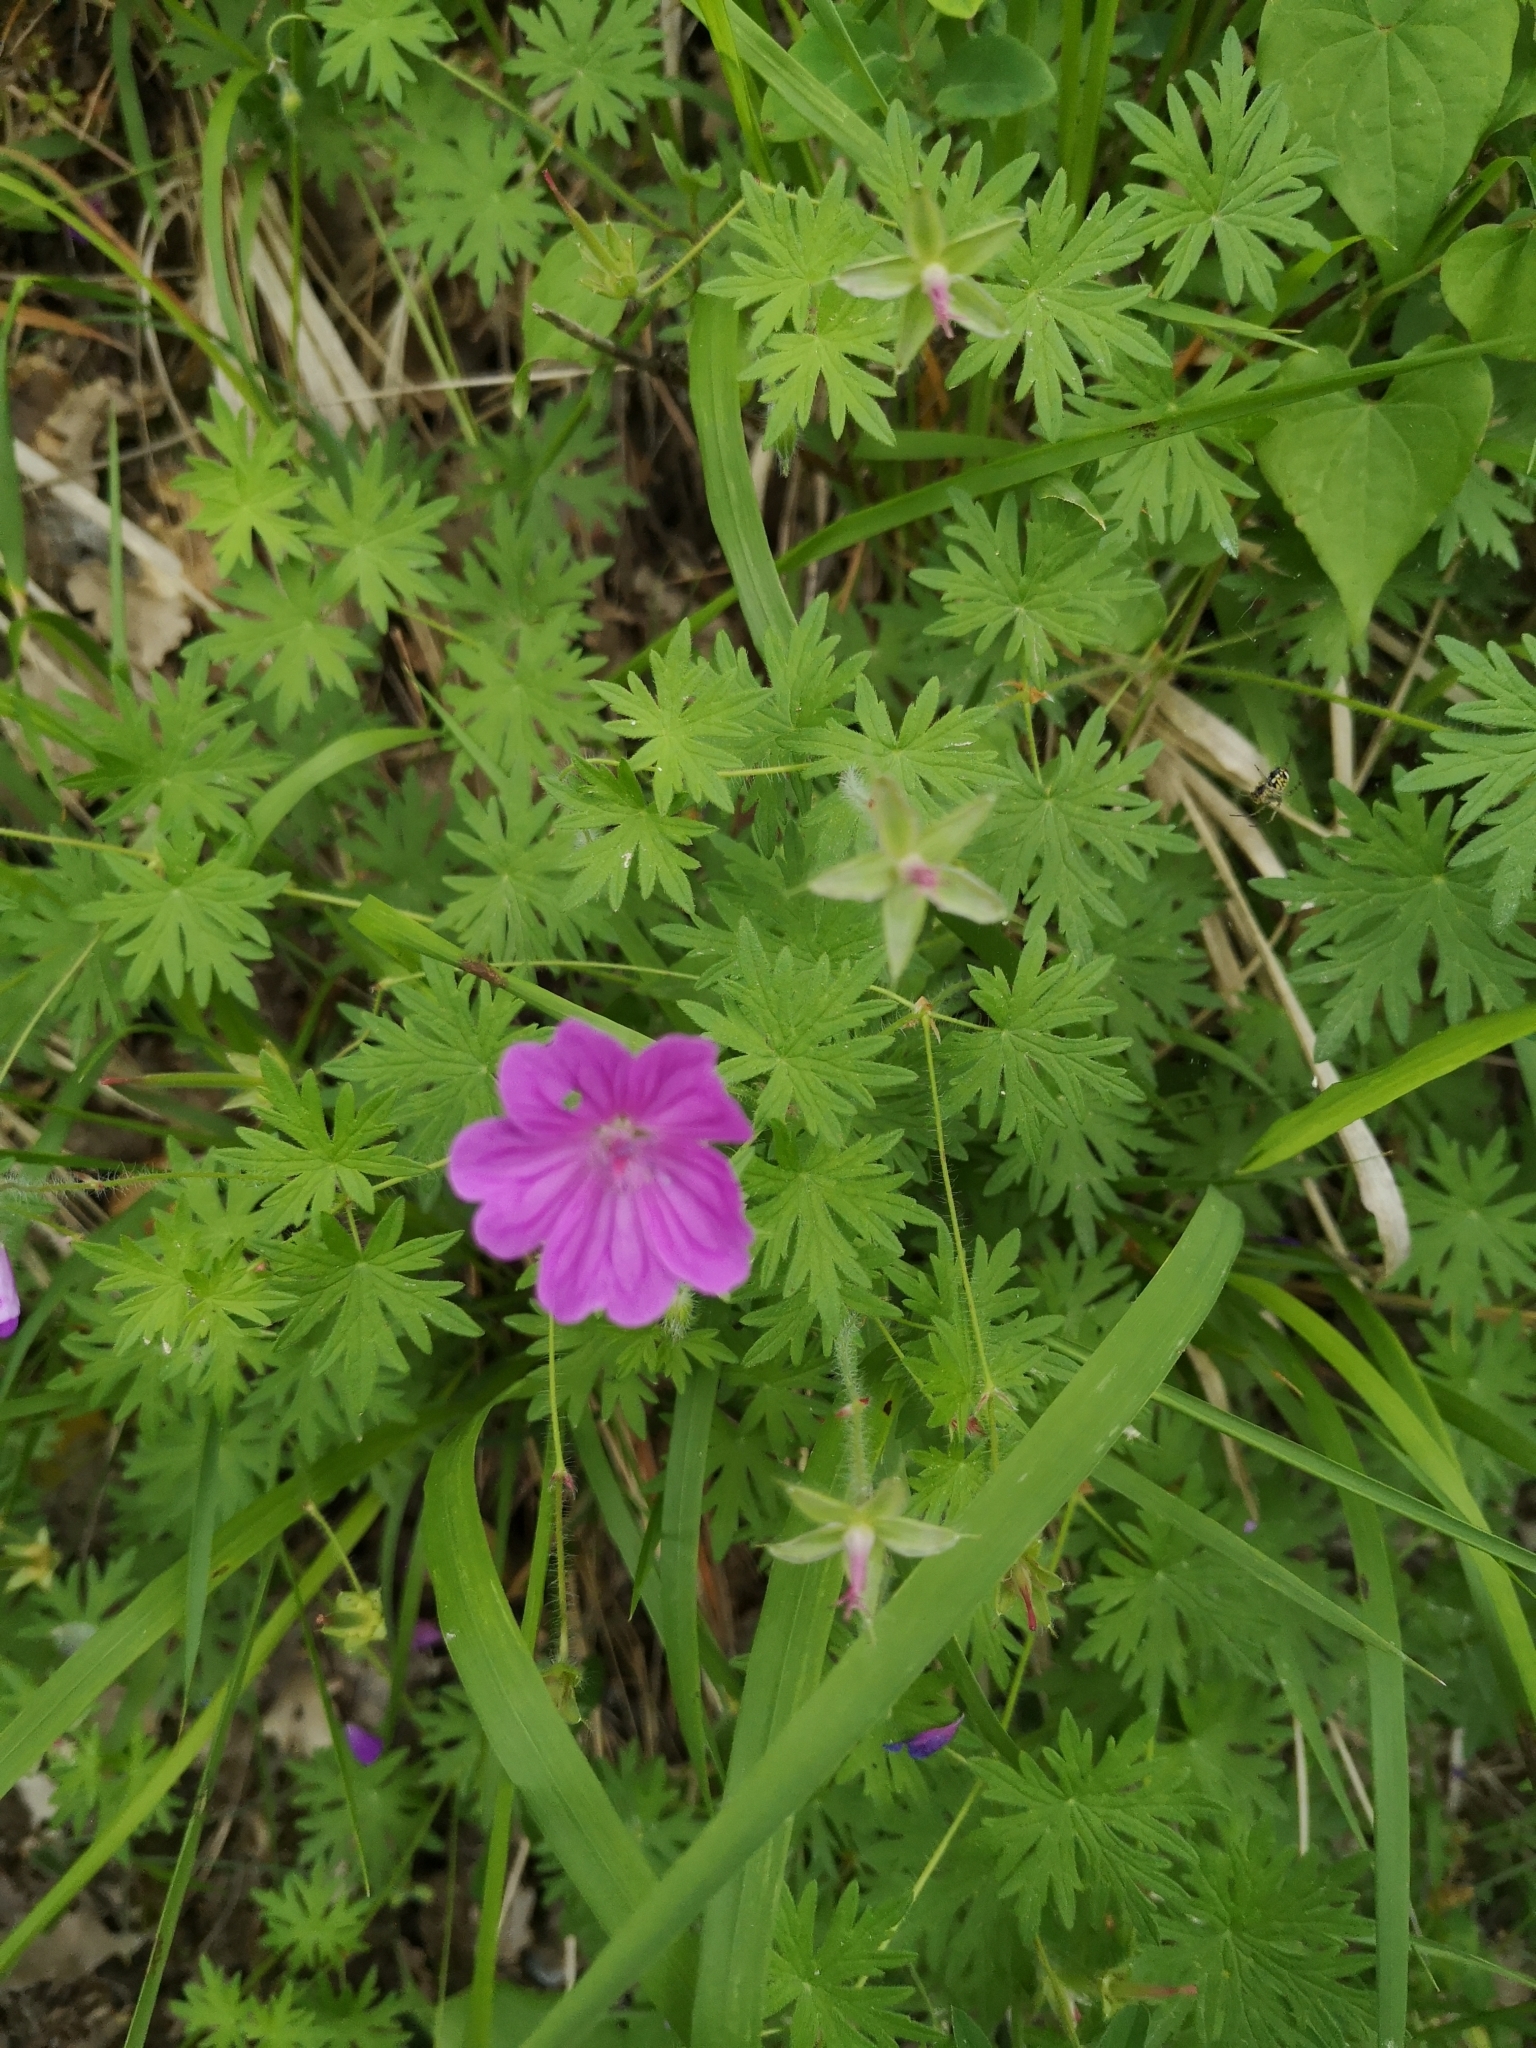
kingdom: Plantae
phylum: Tracheophyta
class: Magnoliopsida
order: Geraniales
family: Geraniaceae
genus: Geranium
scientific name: Geranium sanguineum
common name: Bloody crane's-bill
